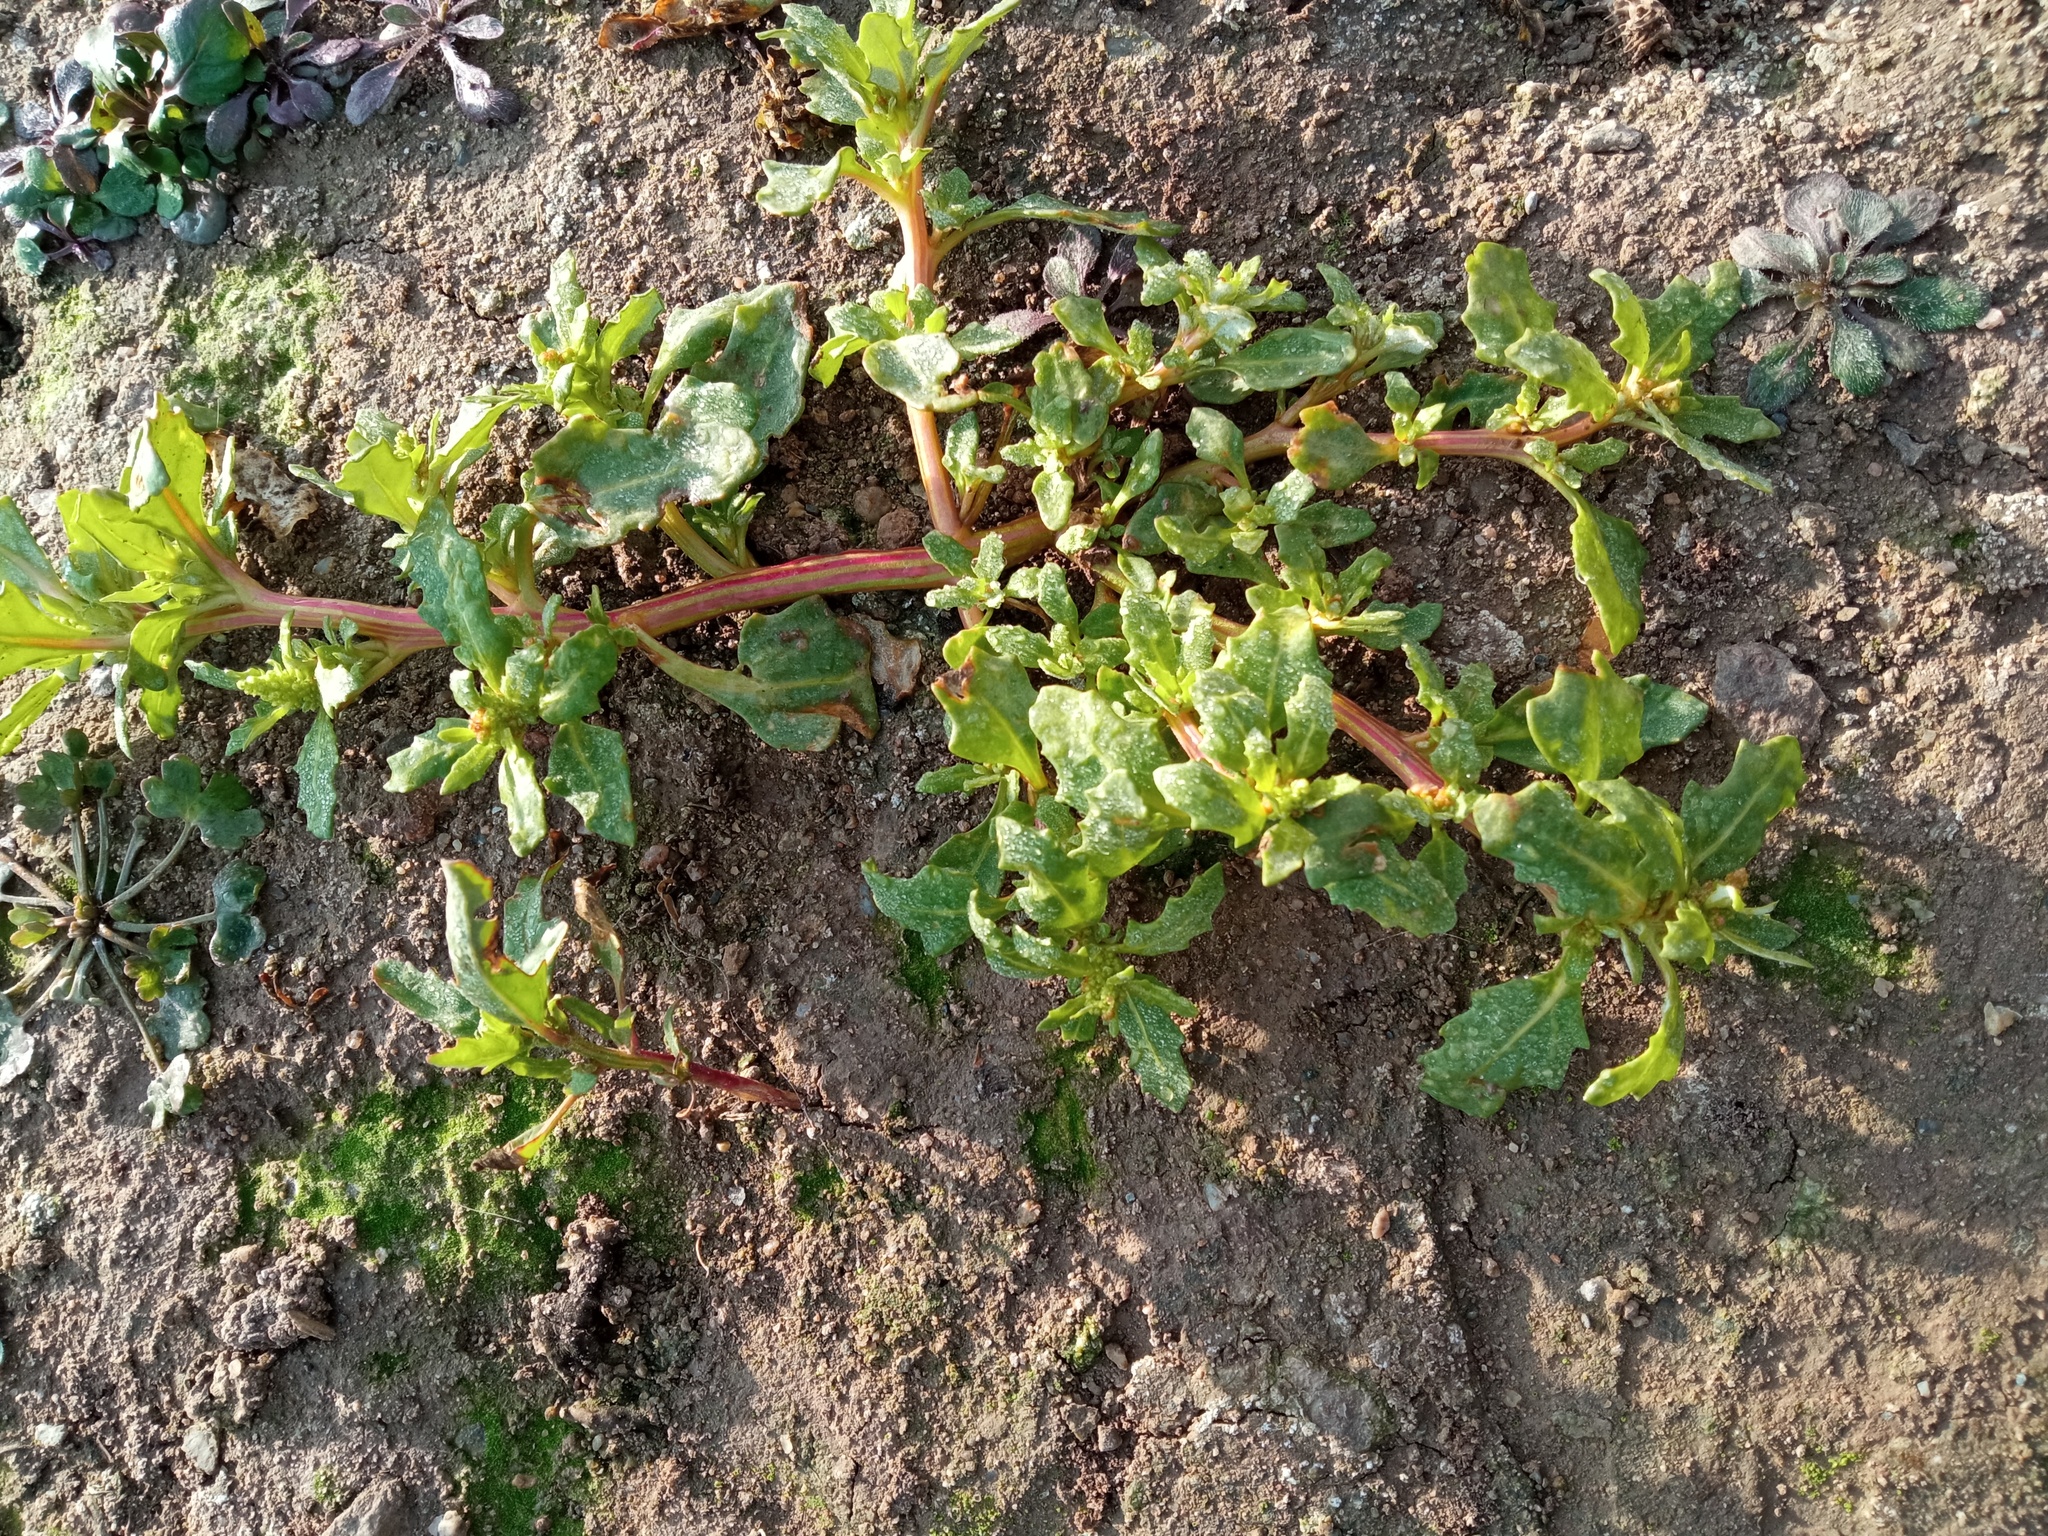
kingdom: Plantae
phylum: Tracheophyta
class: Magnoliopsida
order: Caryophyllales
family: Amaranthaceae
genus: Oxybasis
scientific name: Oxybasis glauca
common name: Glaucous goosefoot
